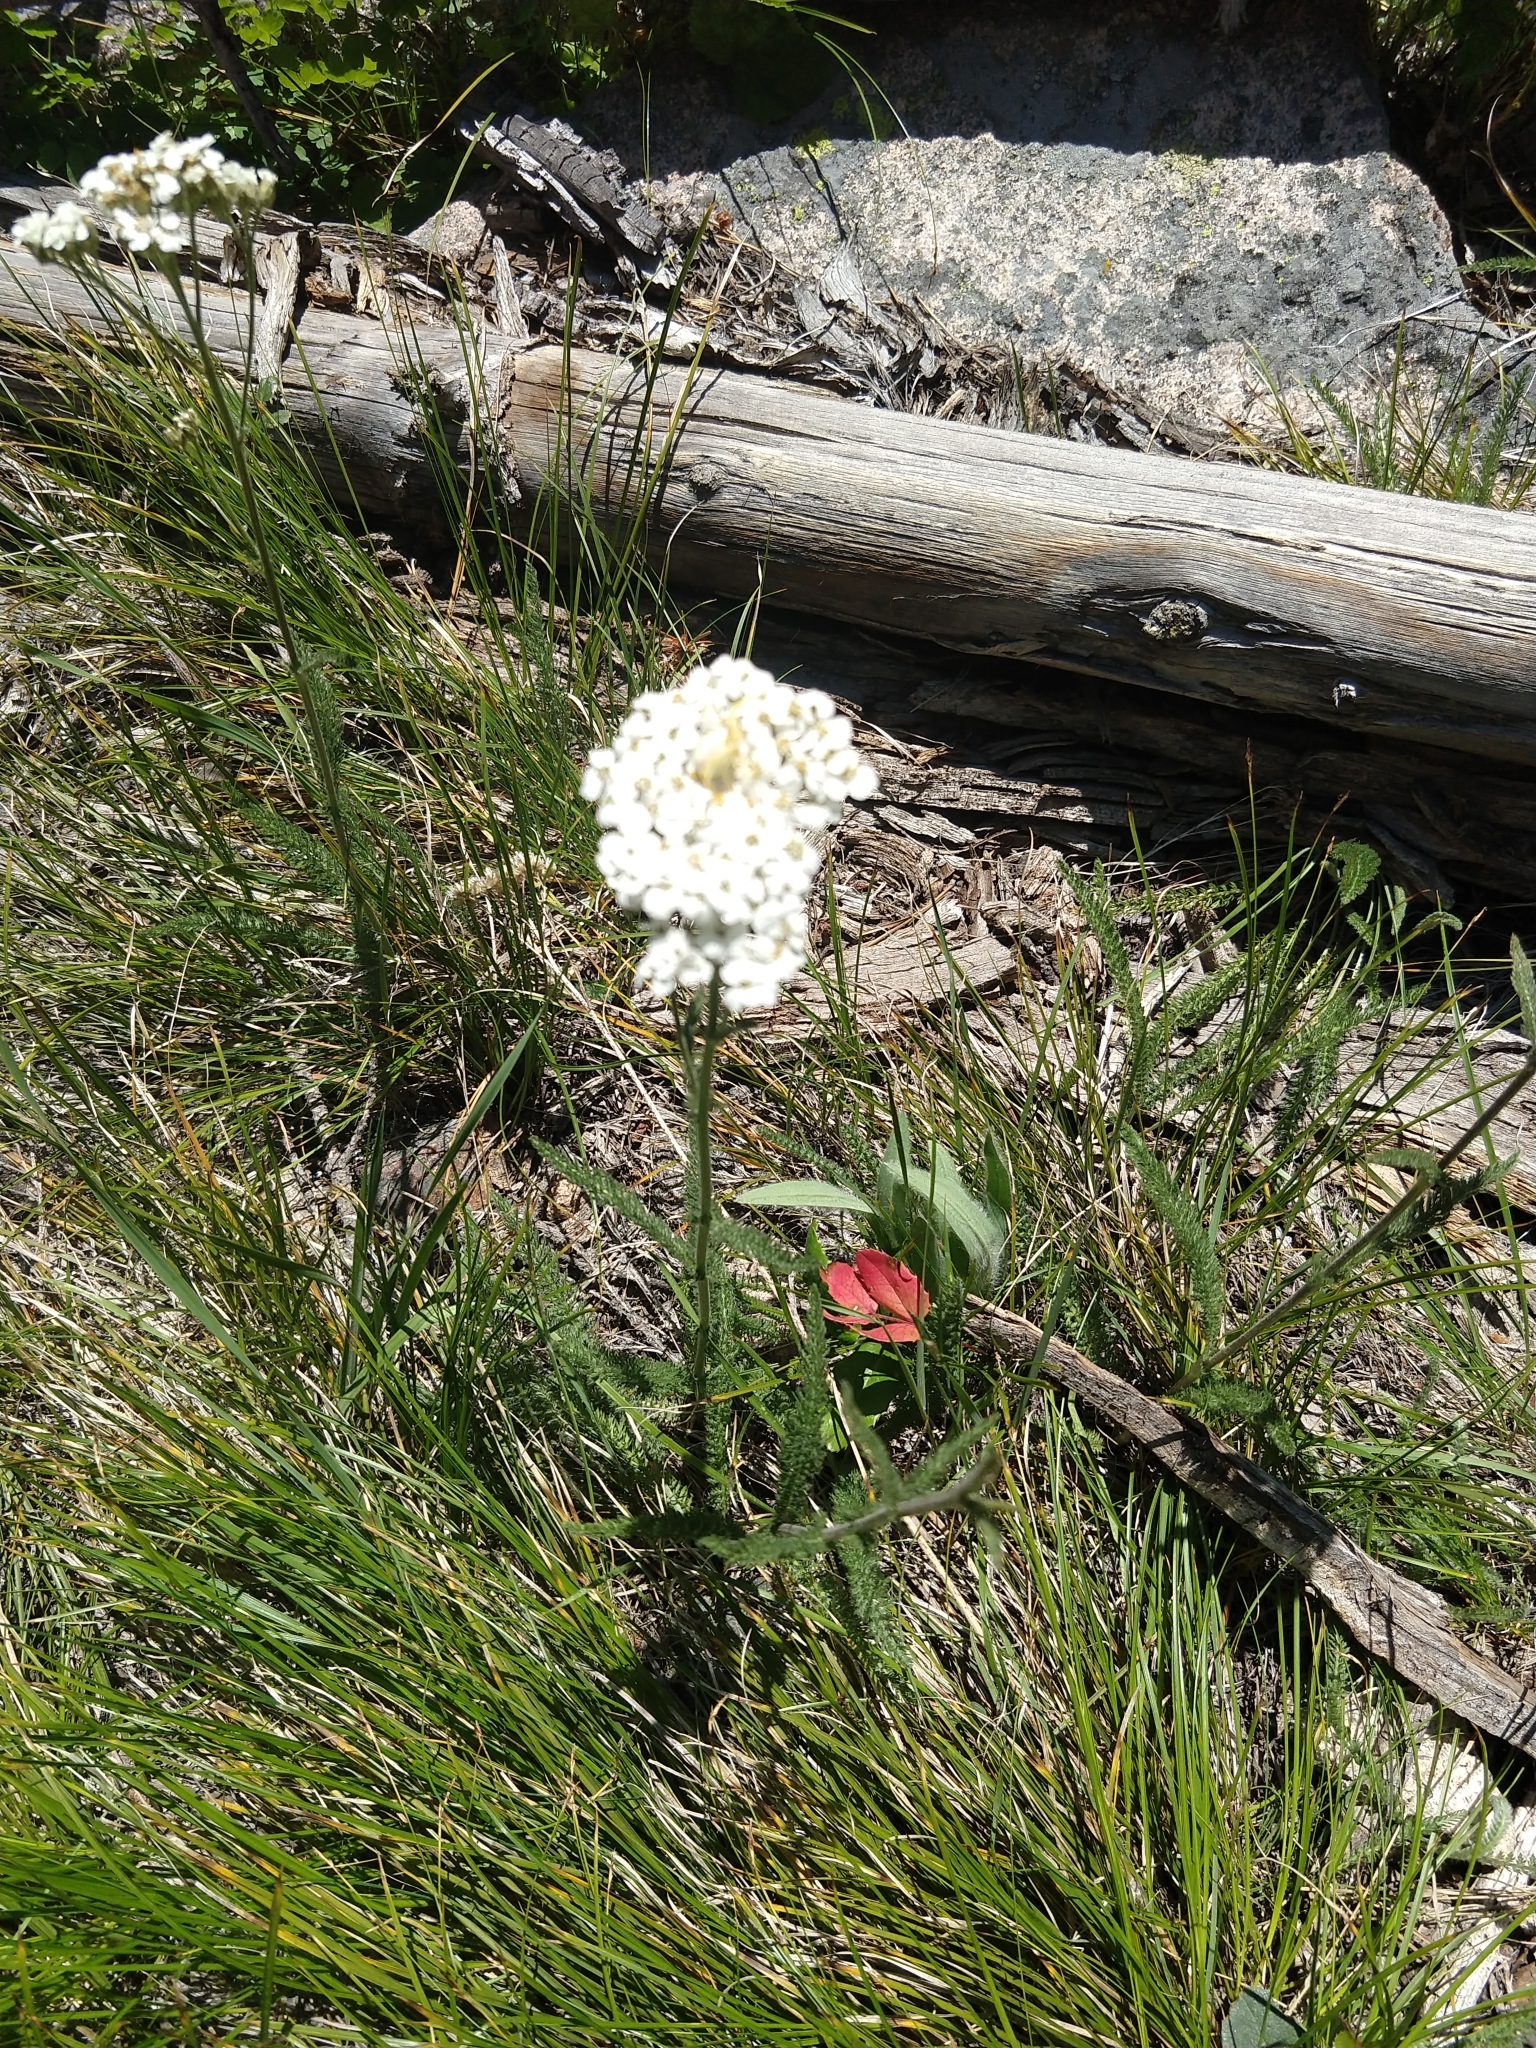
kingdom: Plantae
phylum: Tracheophyta
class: Magnoliopsida
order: Asterales
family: Asteraceae
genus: Achillea
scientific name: Achillea millefolium
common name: Yarrow
